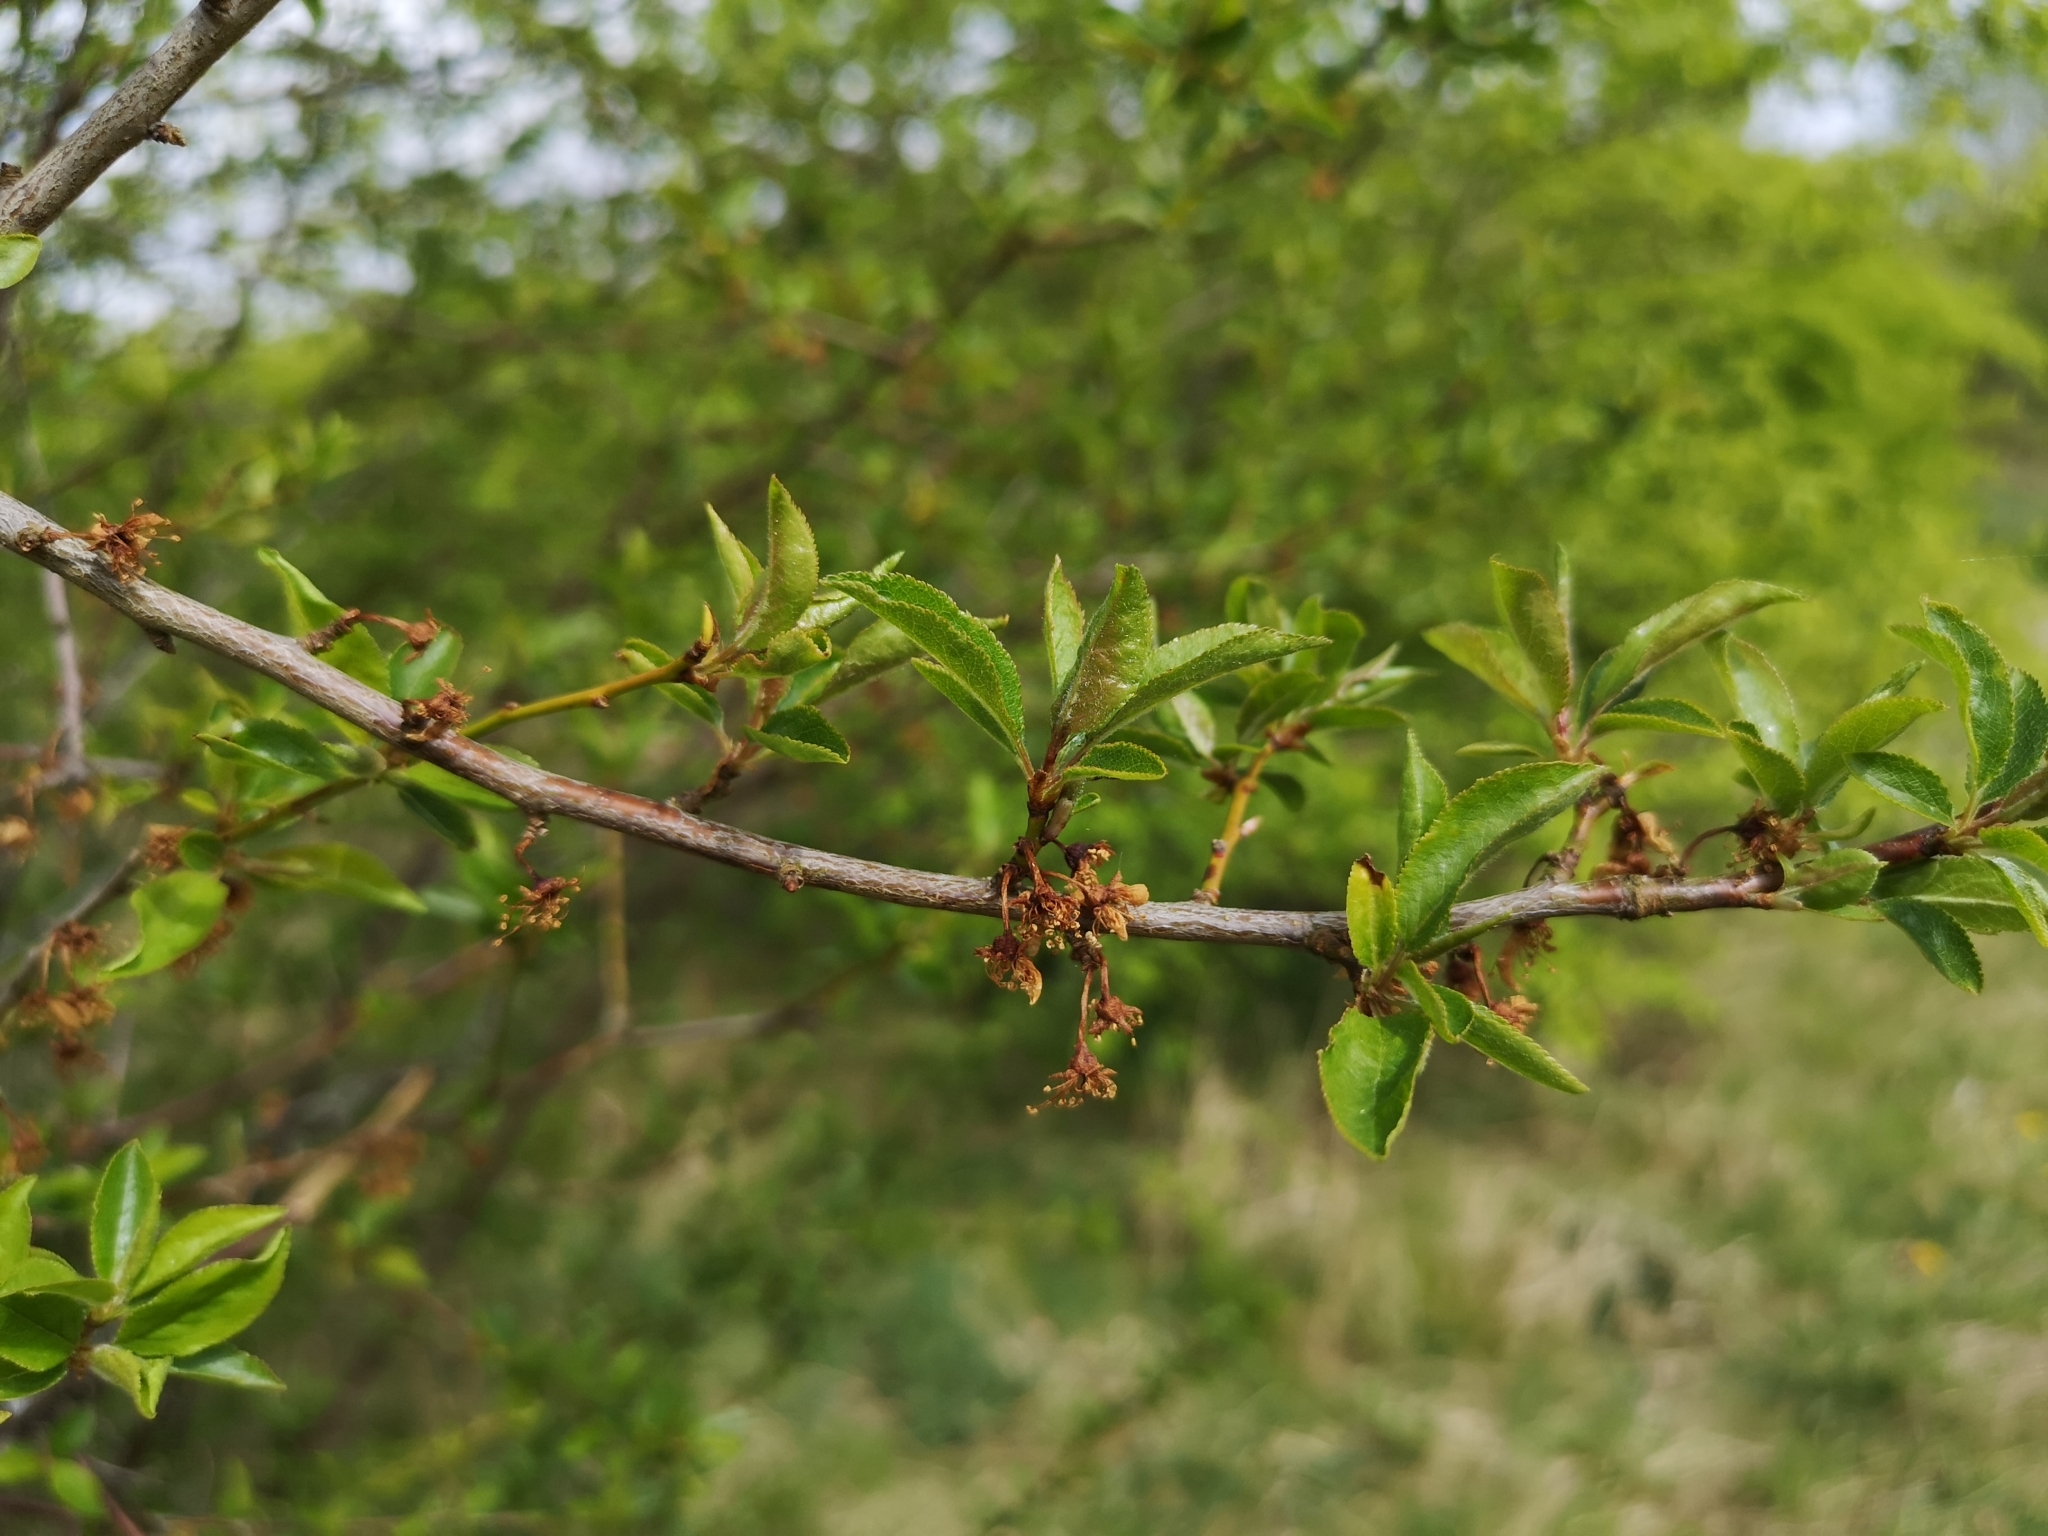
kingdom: Plantae
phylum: Tracheophyta
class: Magnoliopsida
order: Rosales
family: Rosaceae
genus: Prunus
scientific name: Prunus cerasifera
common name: Cherry plum
